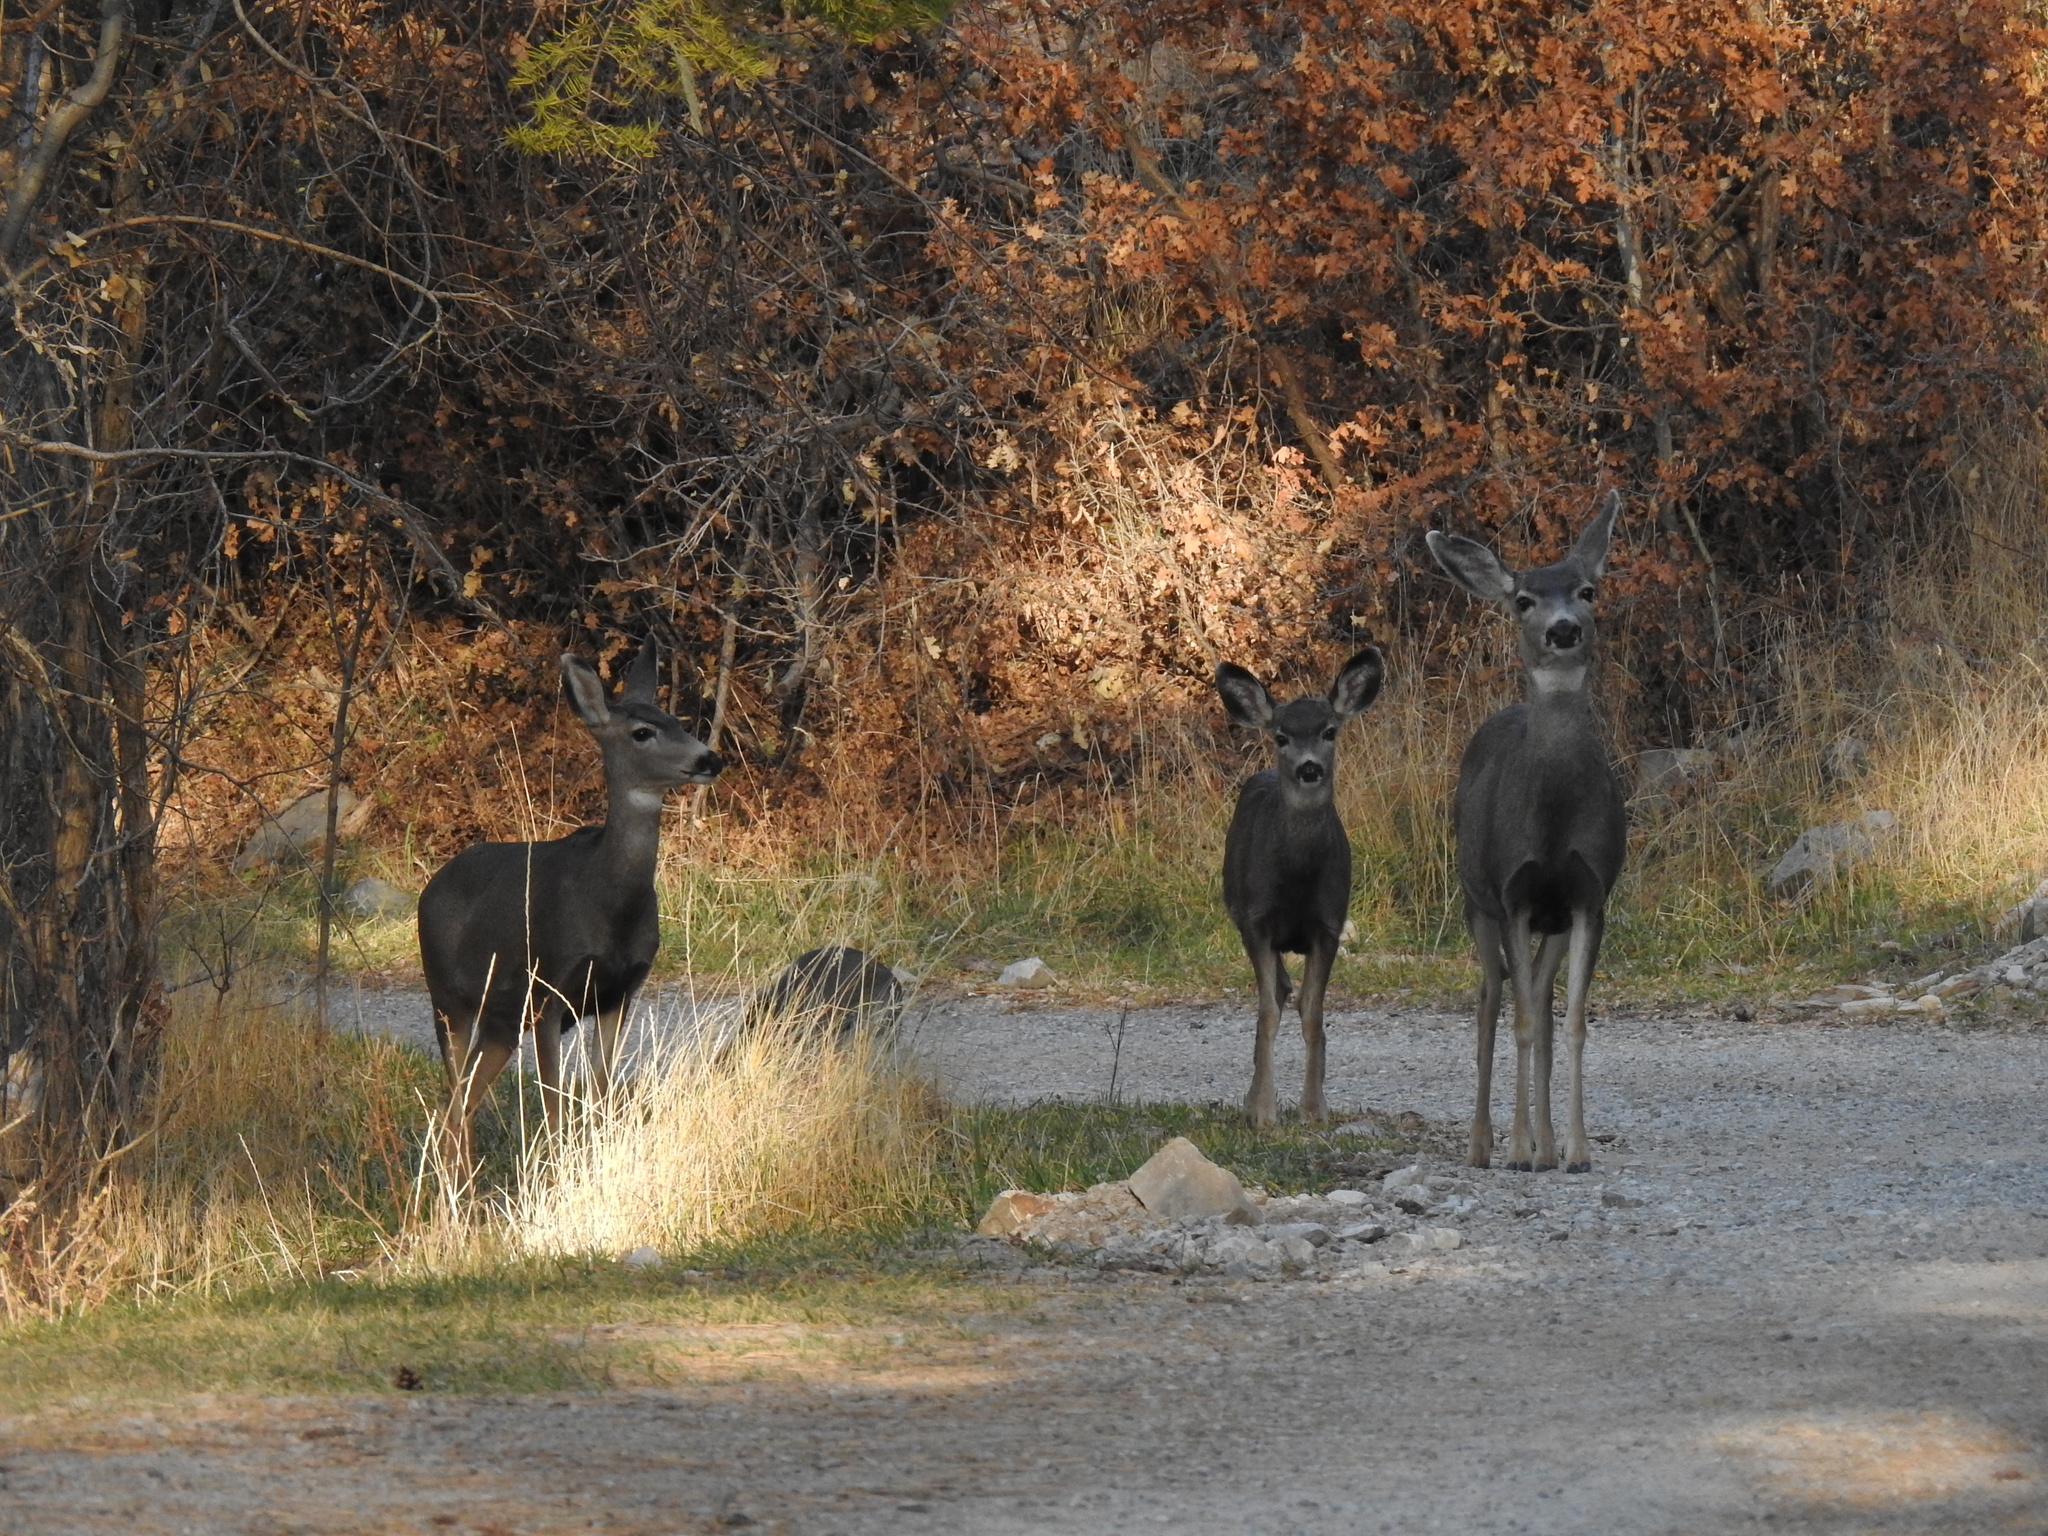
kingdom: Animalia
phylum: Chordata
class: Mammalia
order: Artiodactyla
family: Cervidae
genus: Odocoileus
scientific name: Odocoileus hemionus
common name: Mule deer
